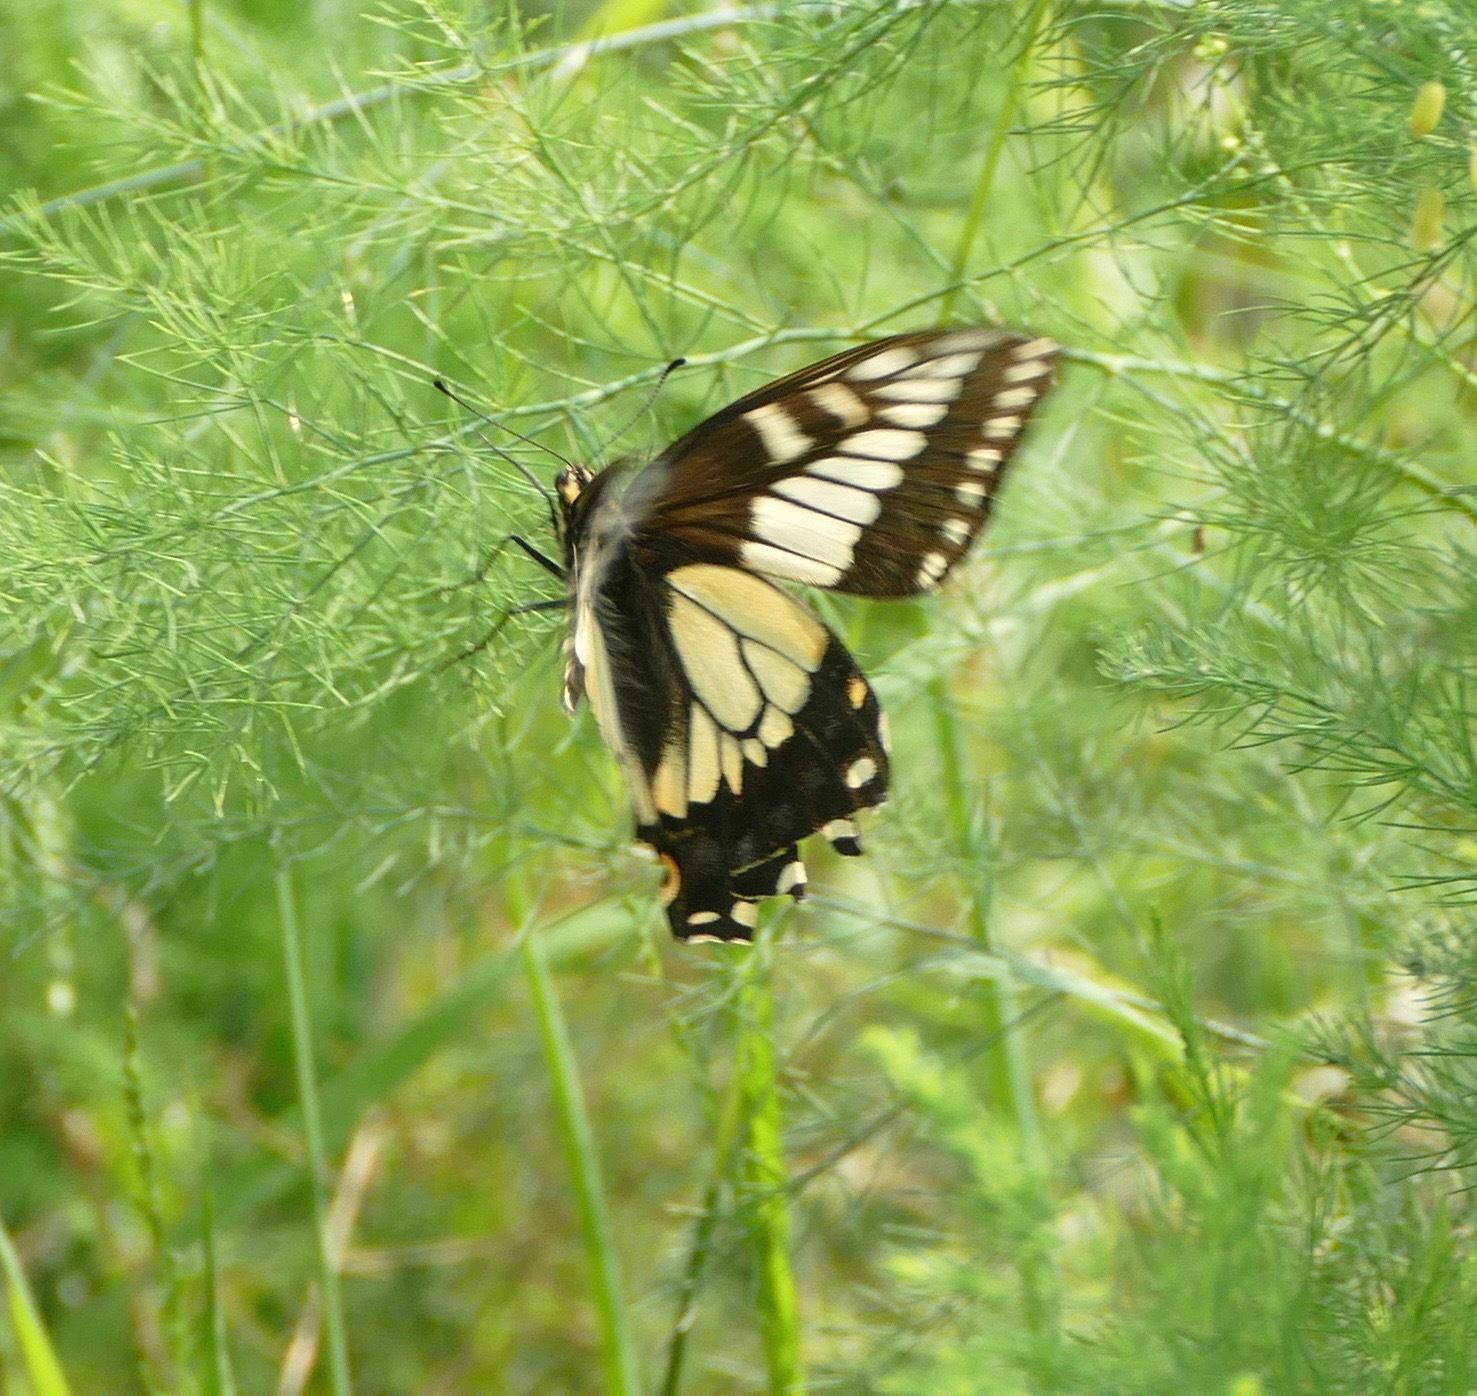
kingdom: Animalia
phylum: Arthropoda
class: Insecta
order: Lepidoptera
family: Papilionidae
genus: Papilio
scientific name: Papilio zelicaon
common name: Anise swallowtail
